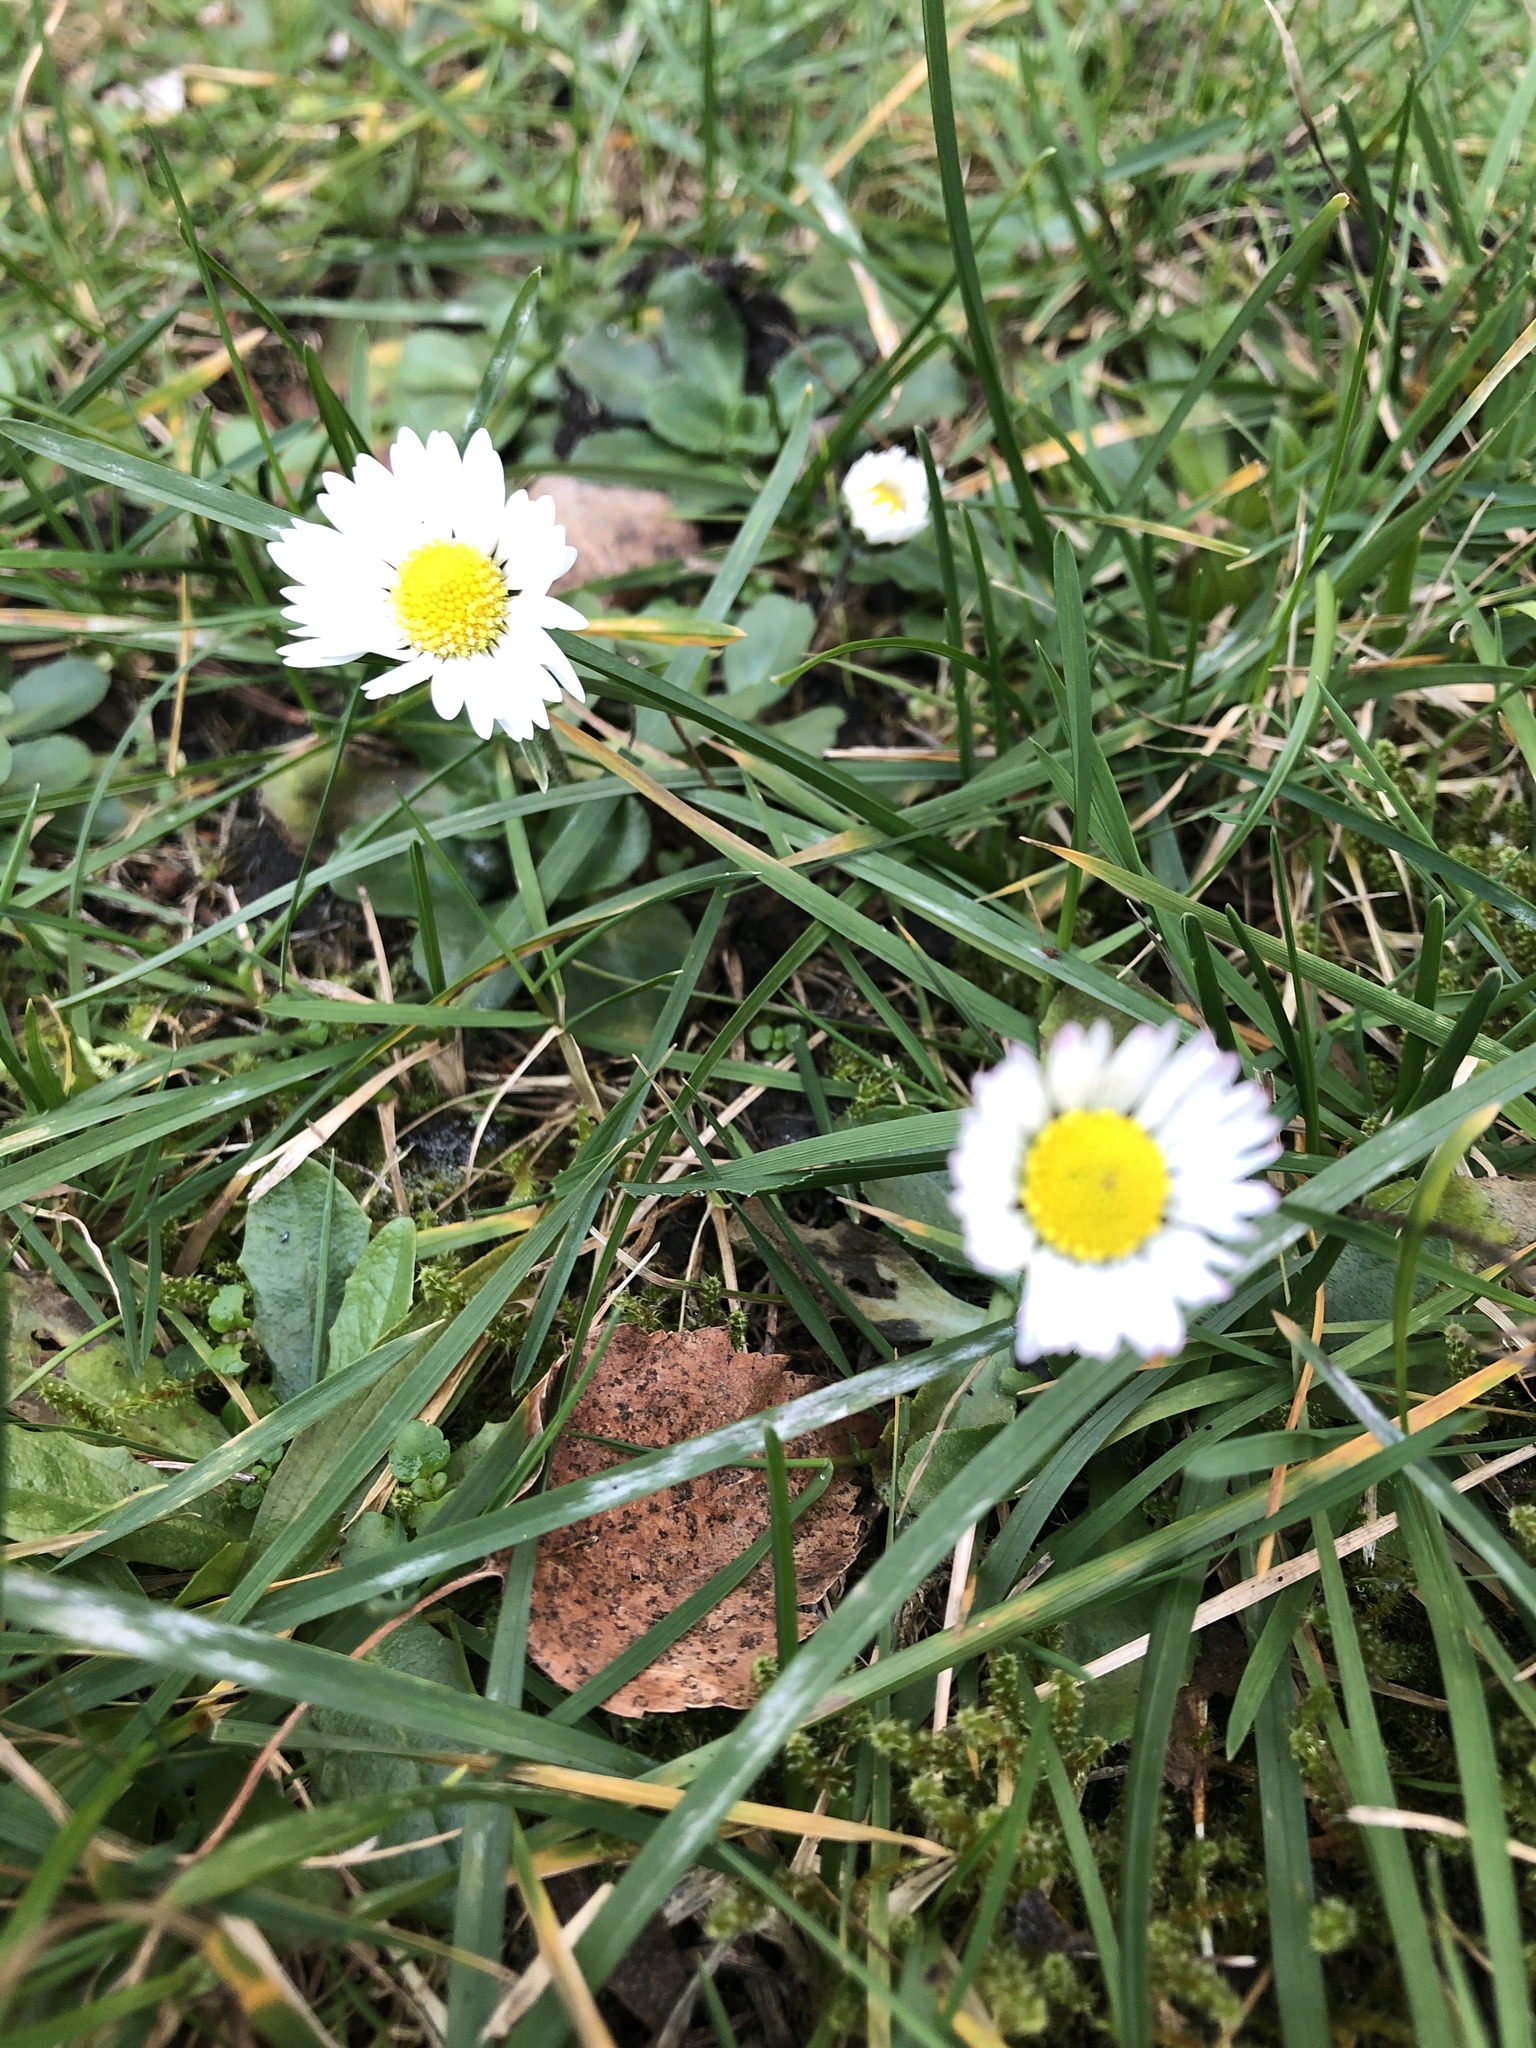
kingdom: Plantae
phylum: Tracheophyta
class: Magnoliopsida
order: Asterales
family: Asteraceae
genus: Bellis
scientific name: Bellis perennis
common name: Lawndaisy
